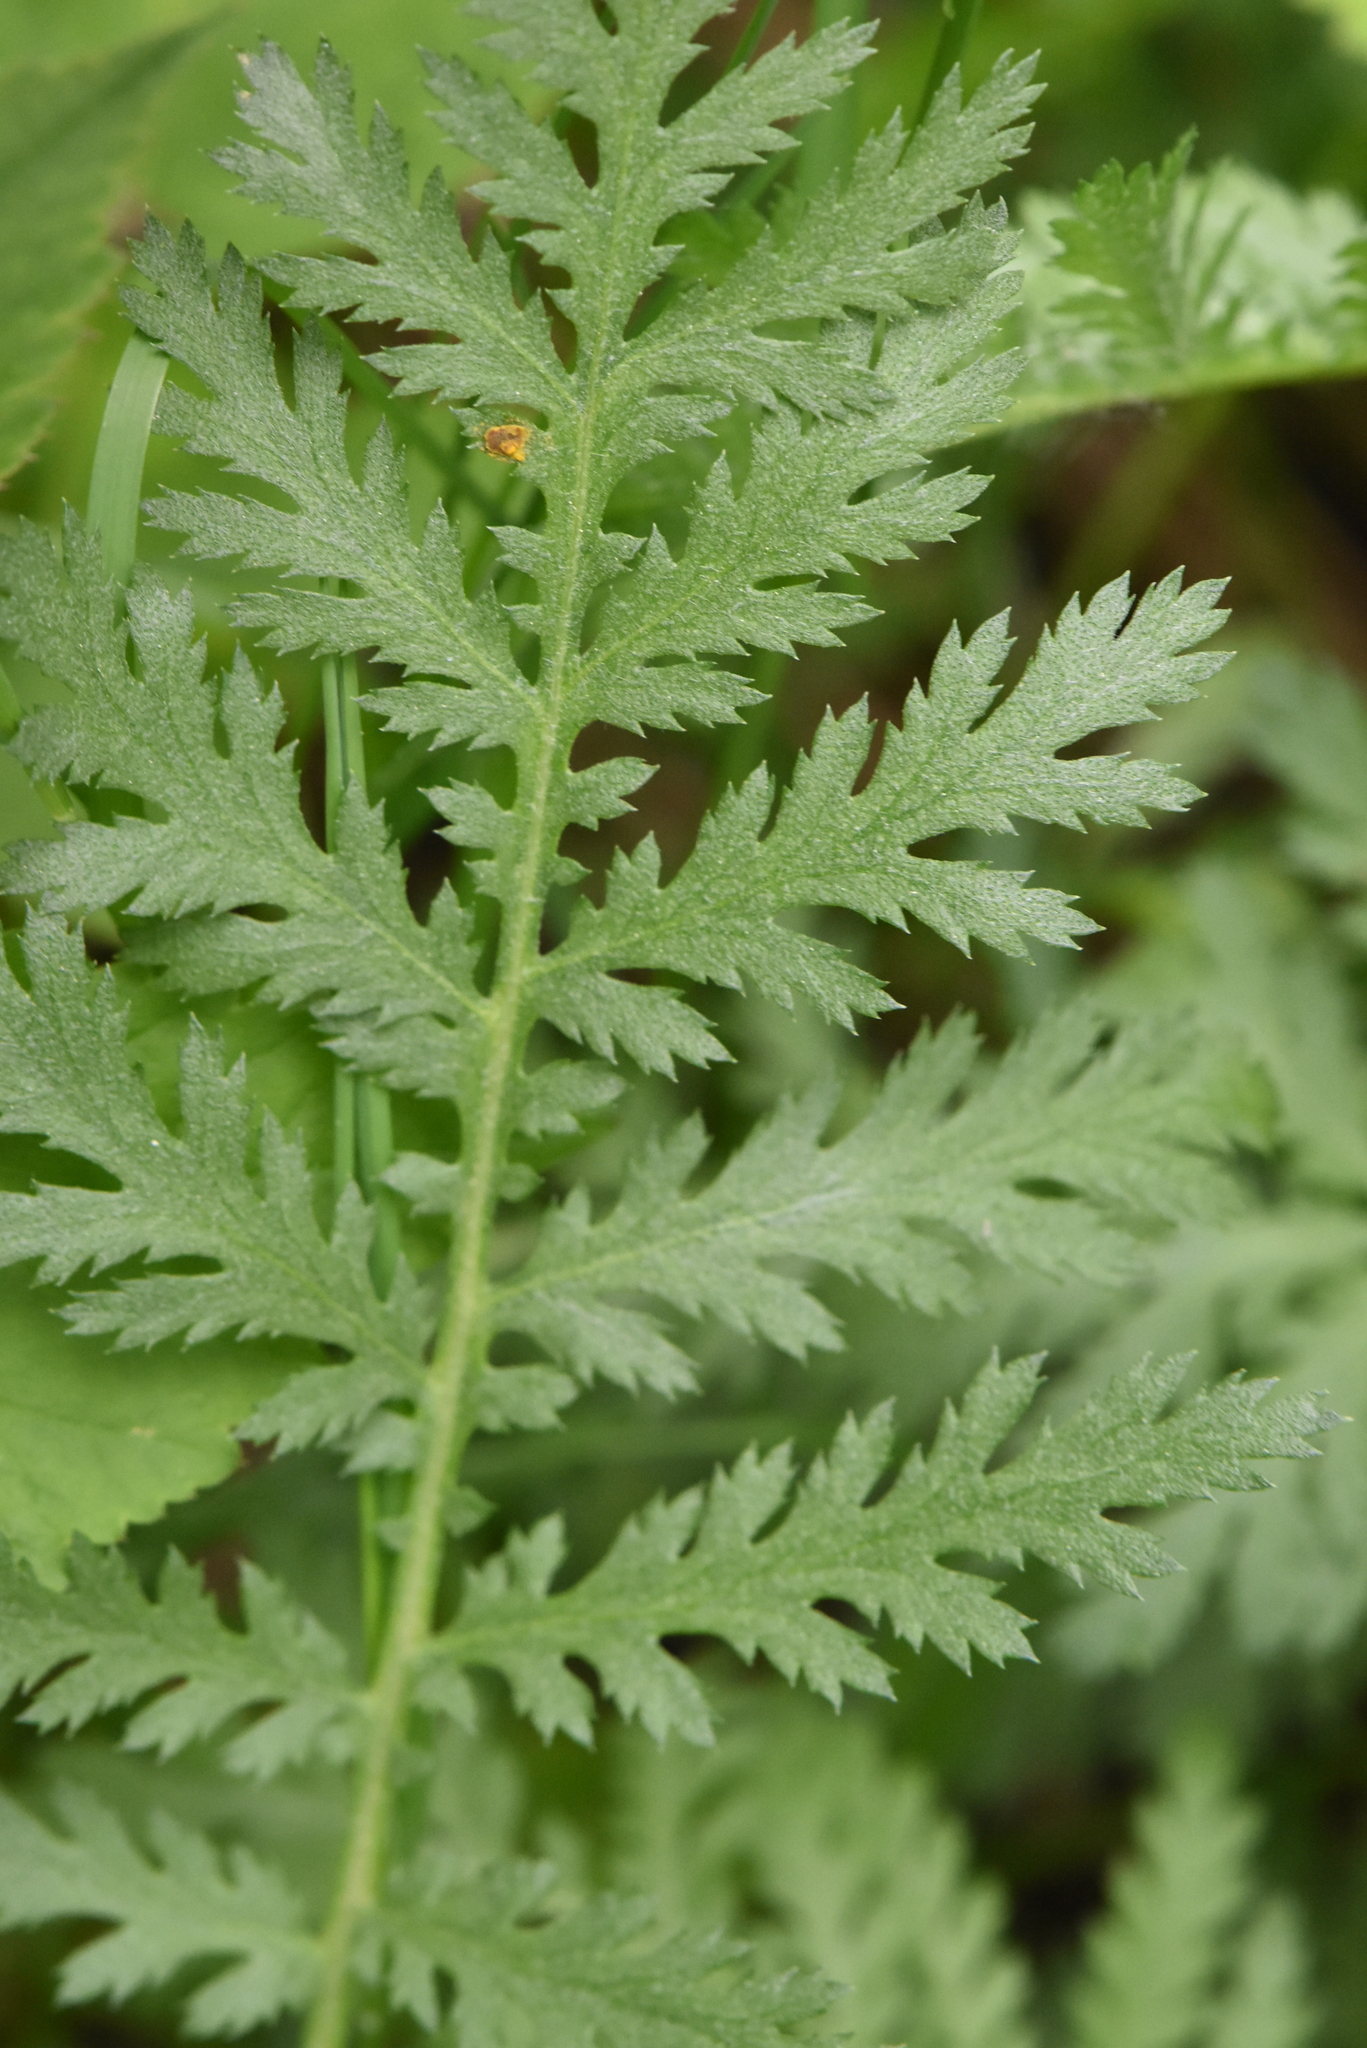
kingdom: Plantae
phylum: Tracheophyta
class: Magnoliopsida
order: Asterales
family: Asteraceae
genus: Tanacetum
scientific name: Tanacetum vulgare
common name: Common tansy
